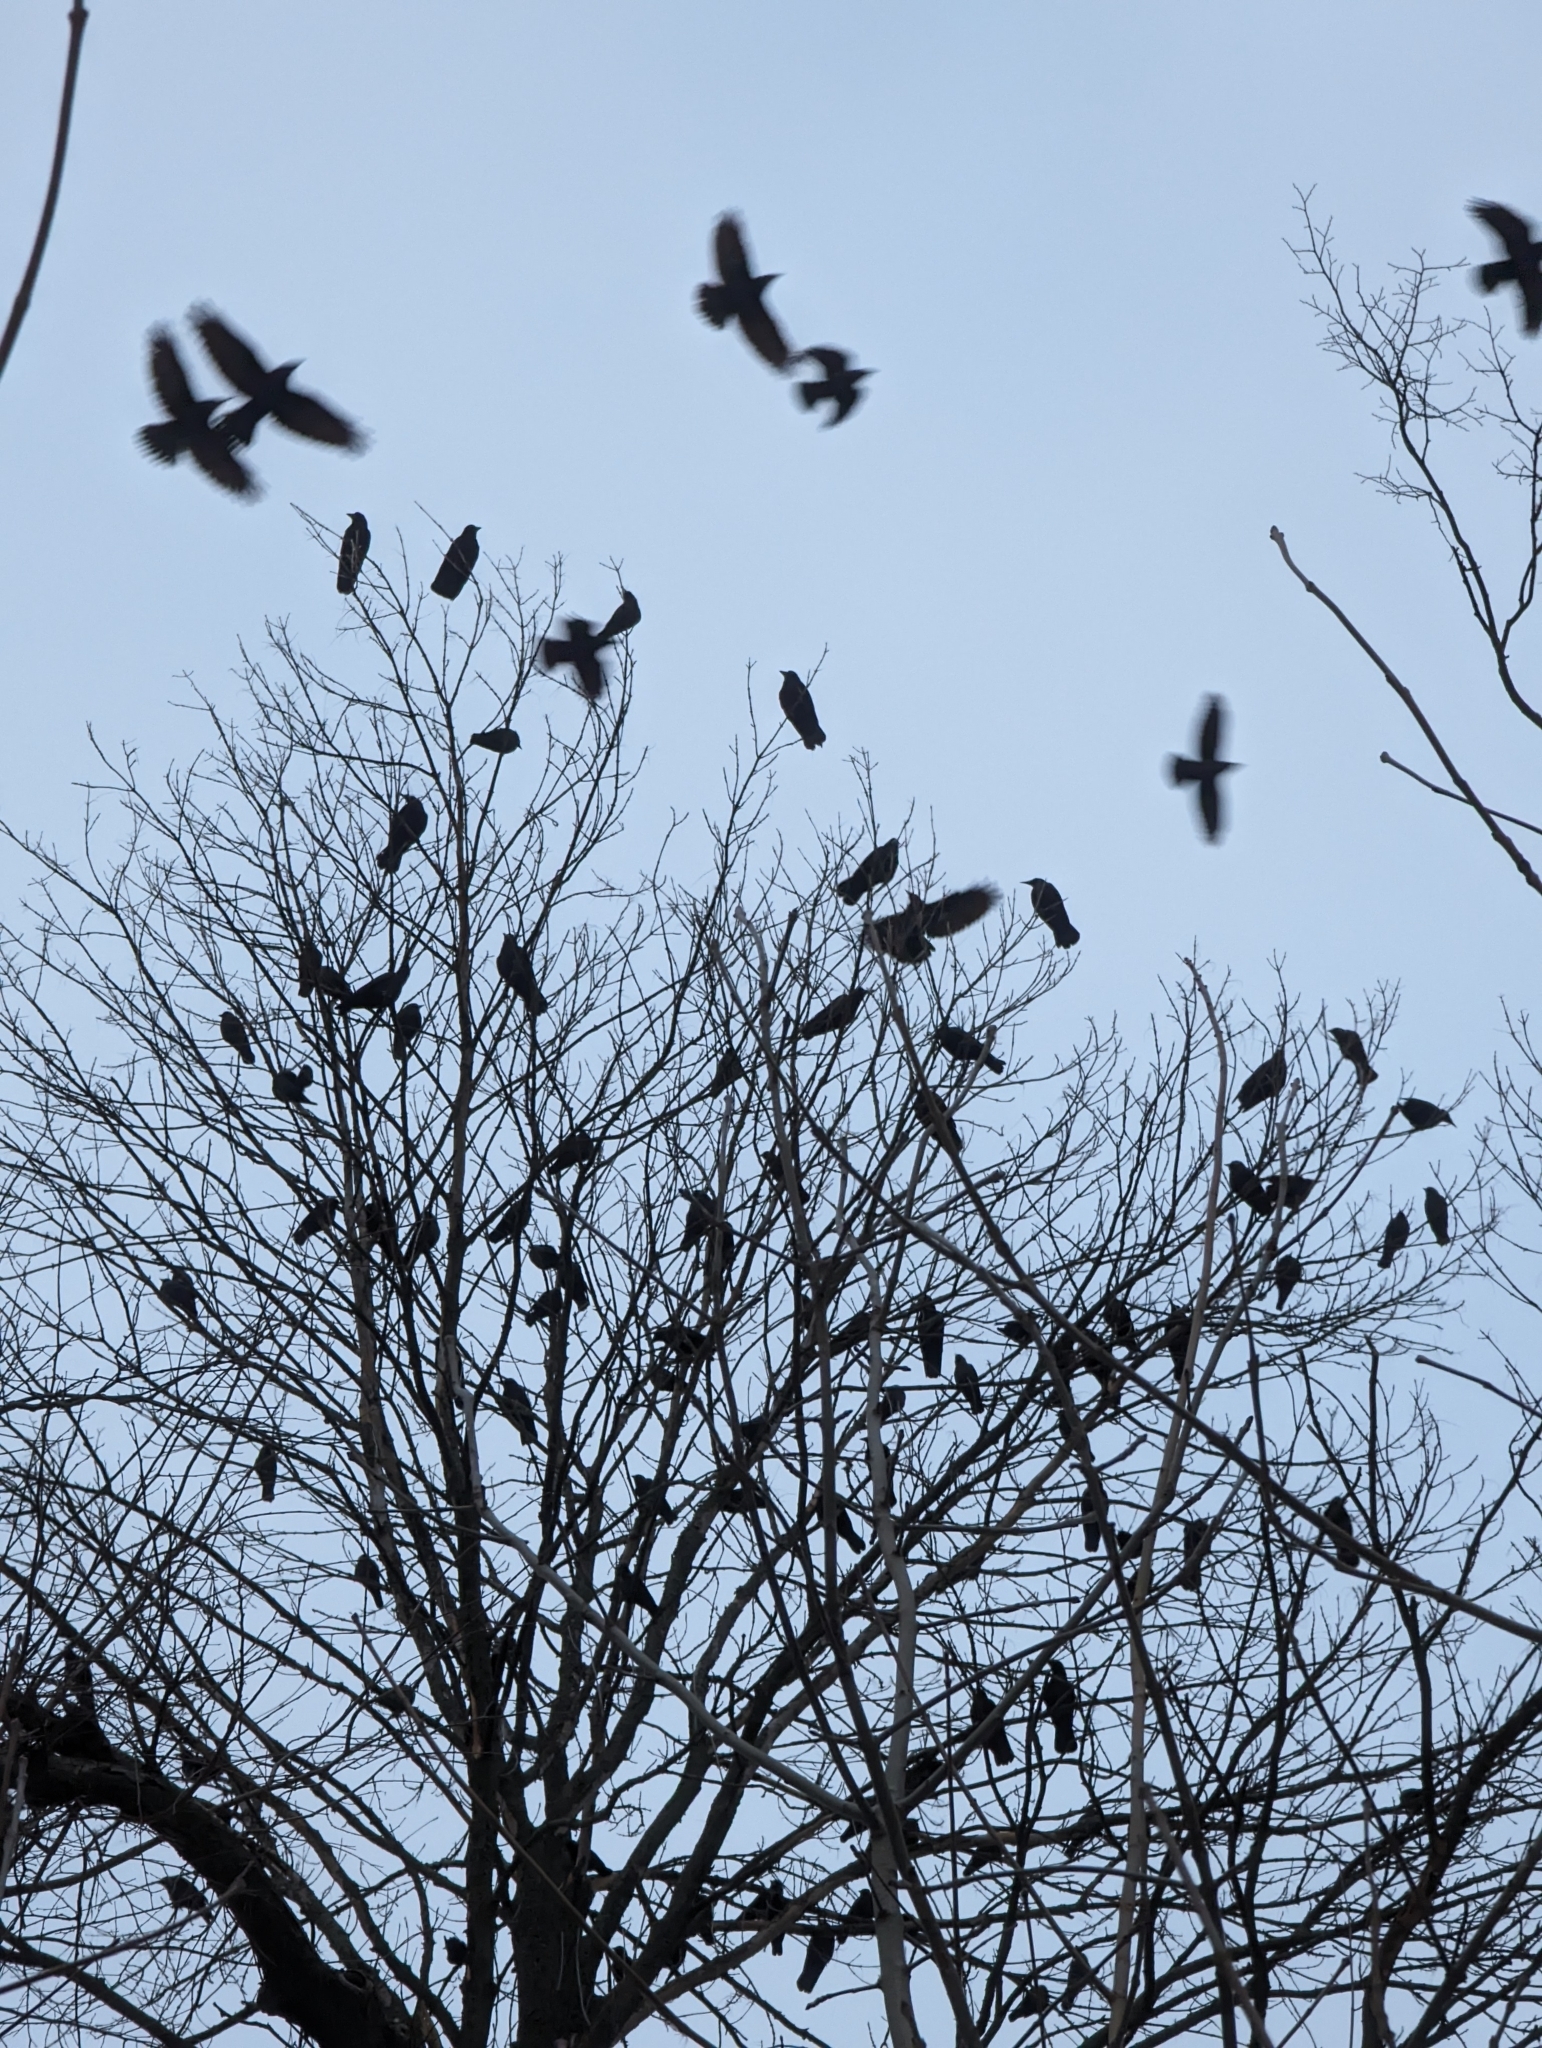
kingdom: Animalia
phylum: Chordata
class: Aves
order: Passeriformes
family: Corvidae
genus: Coloeus
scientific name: Coloeus monedula
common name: Western jackdaw
